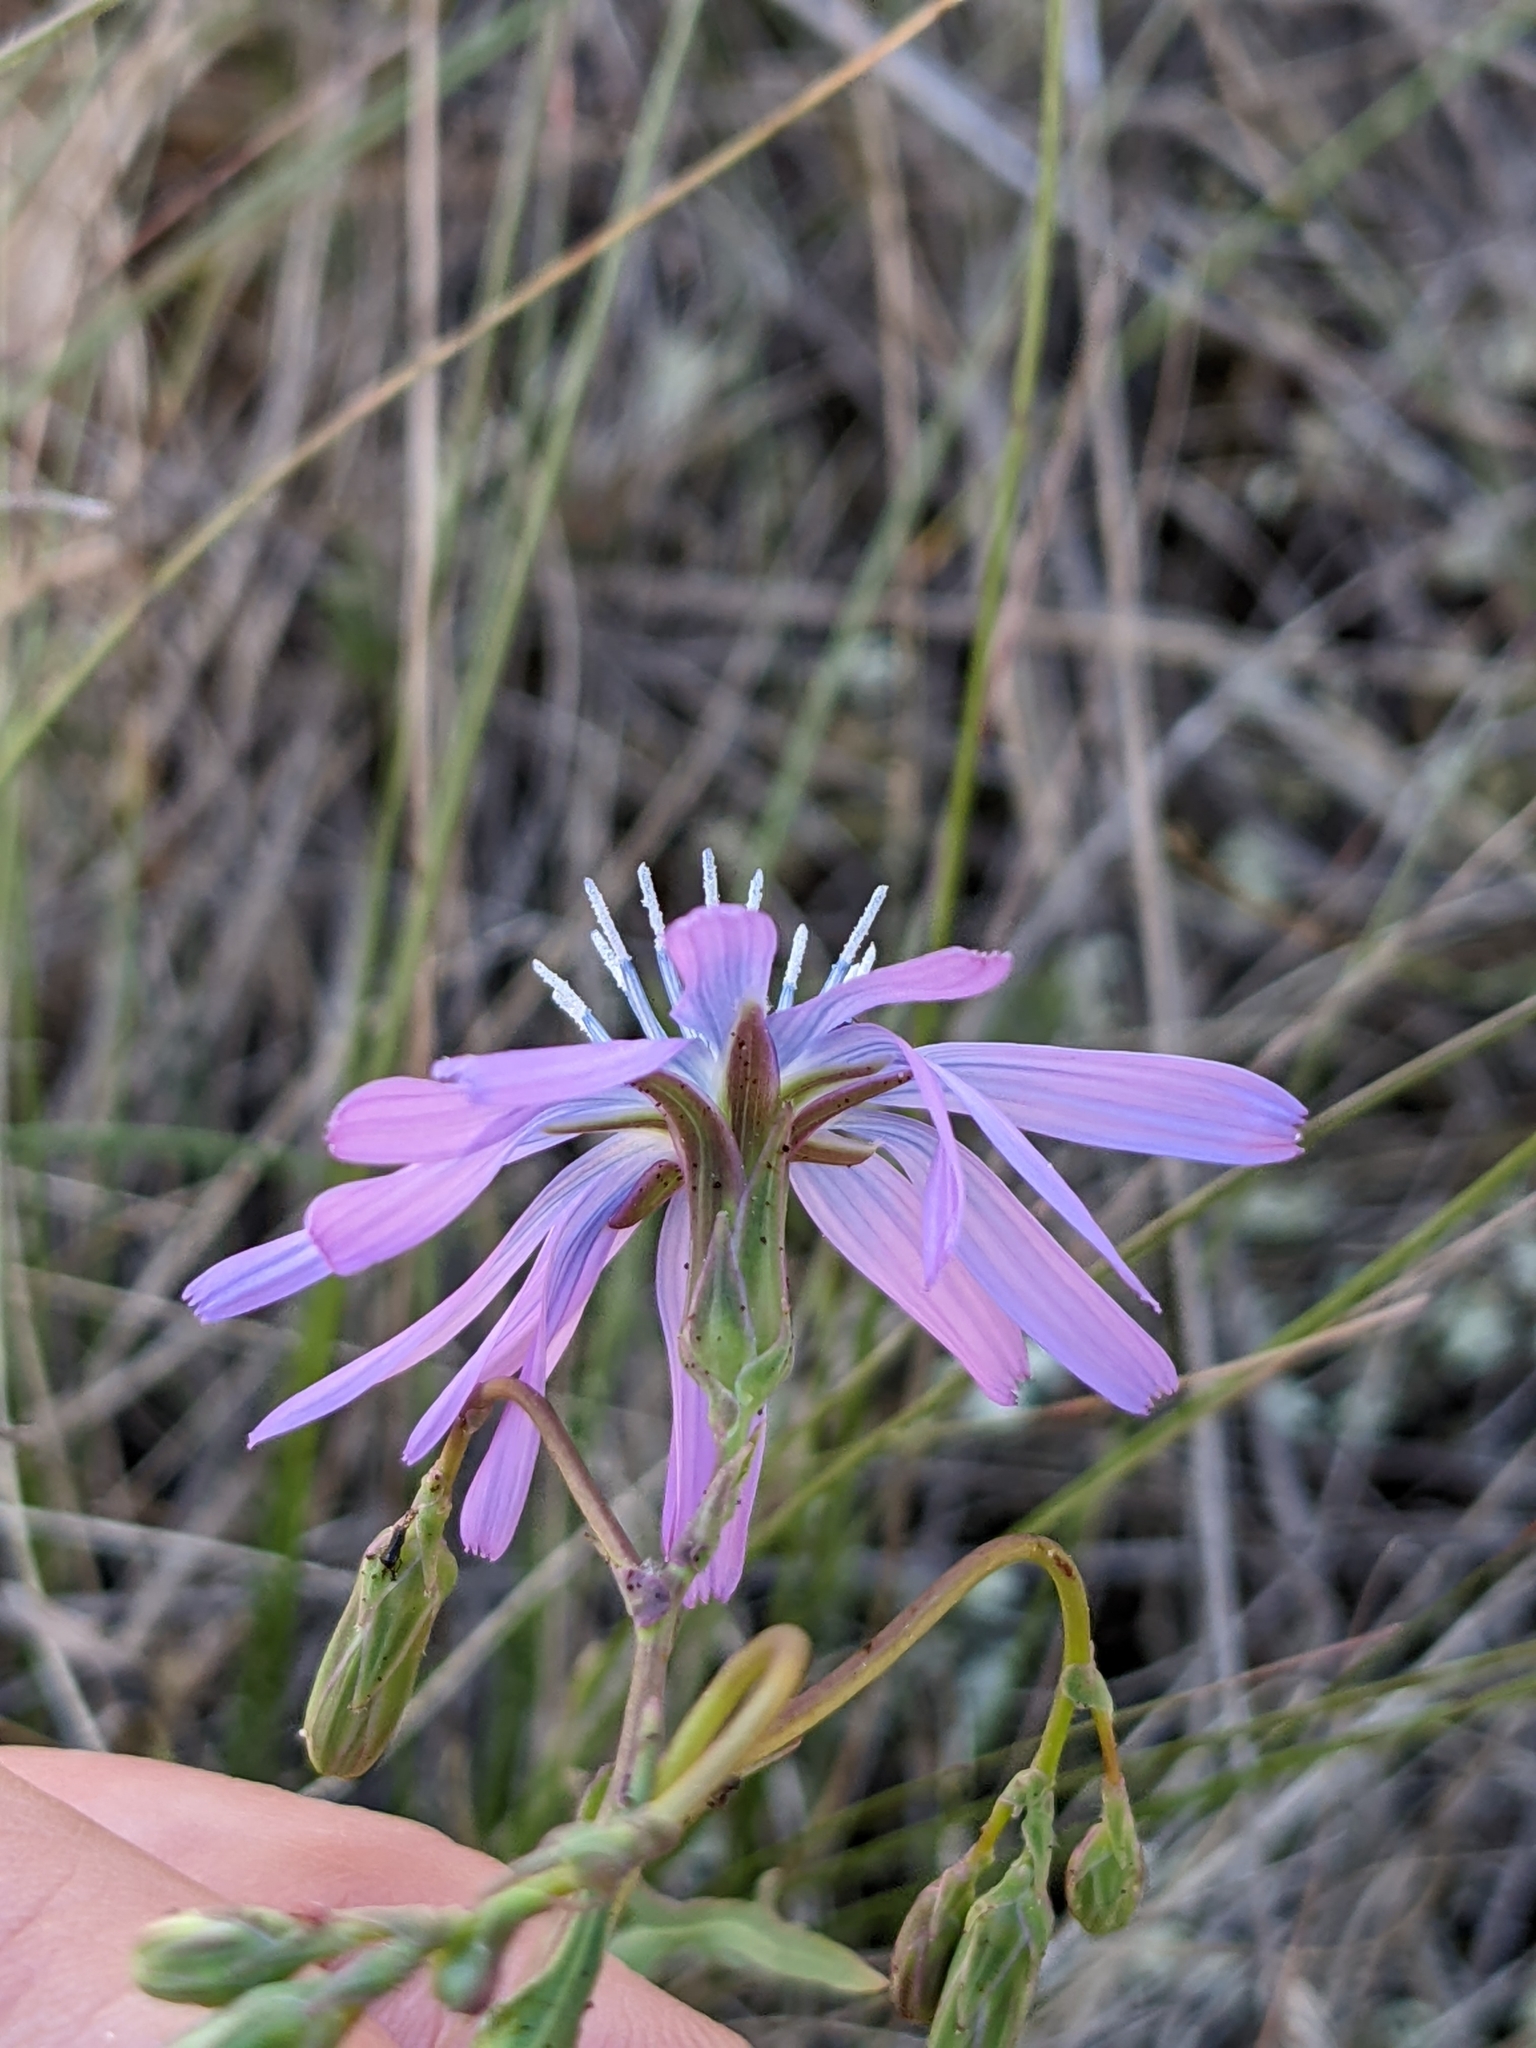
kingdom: Plantae
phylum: Tracheophyta
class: Magnoliopsida
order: Asterales
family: Asteraceae
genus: Lactuca
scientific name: Lactuca perennis
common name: Mountain lettuce
